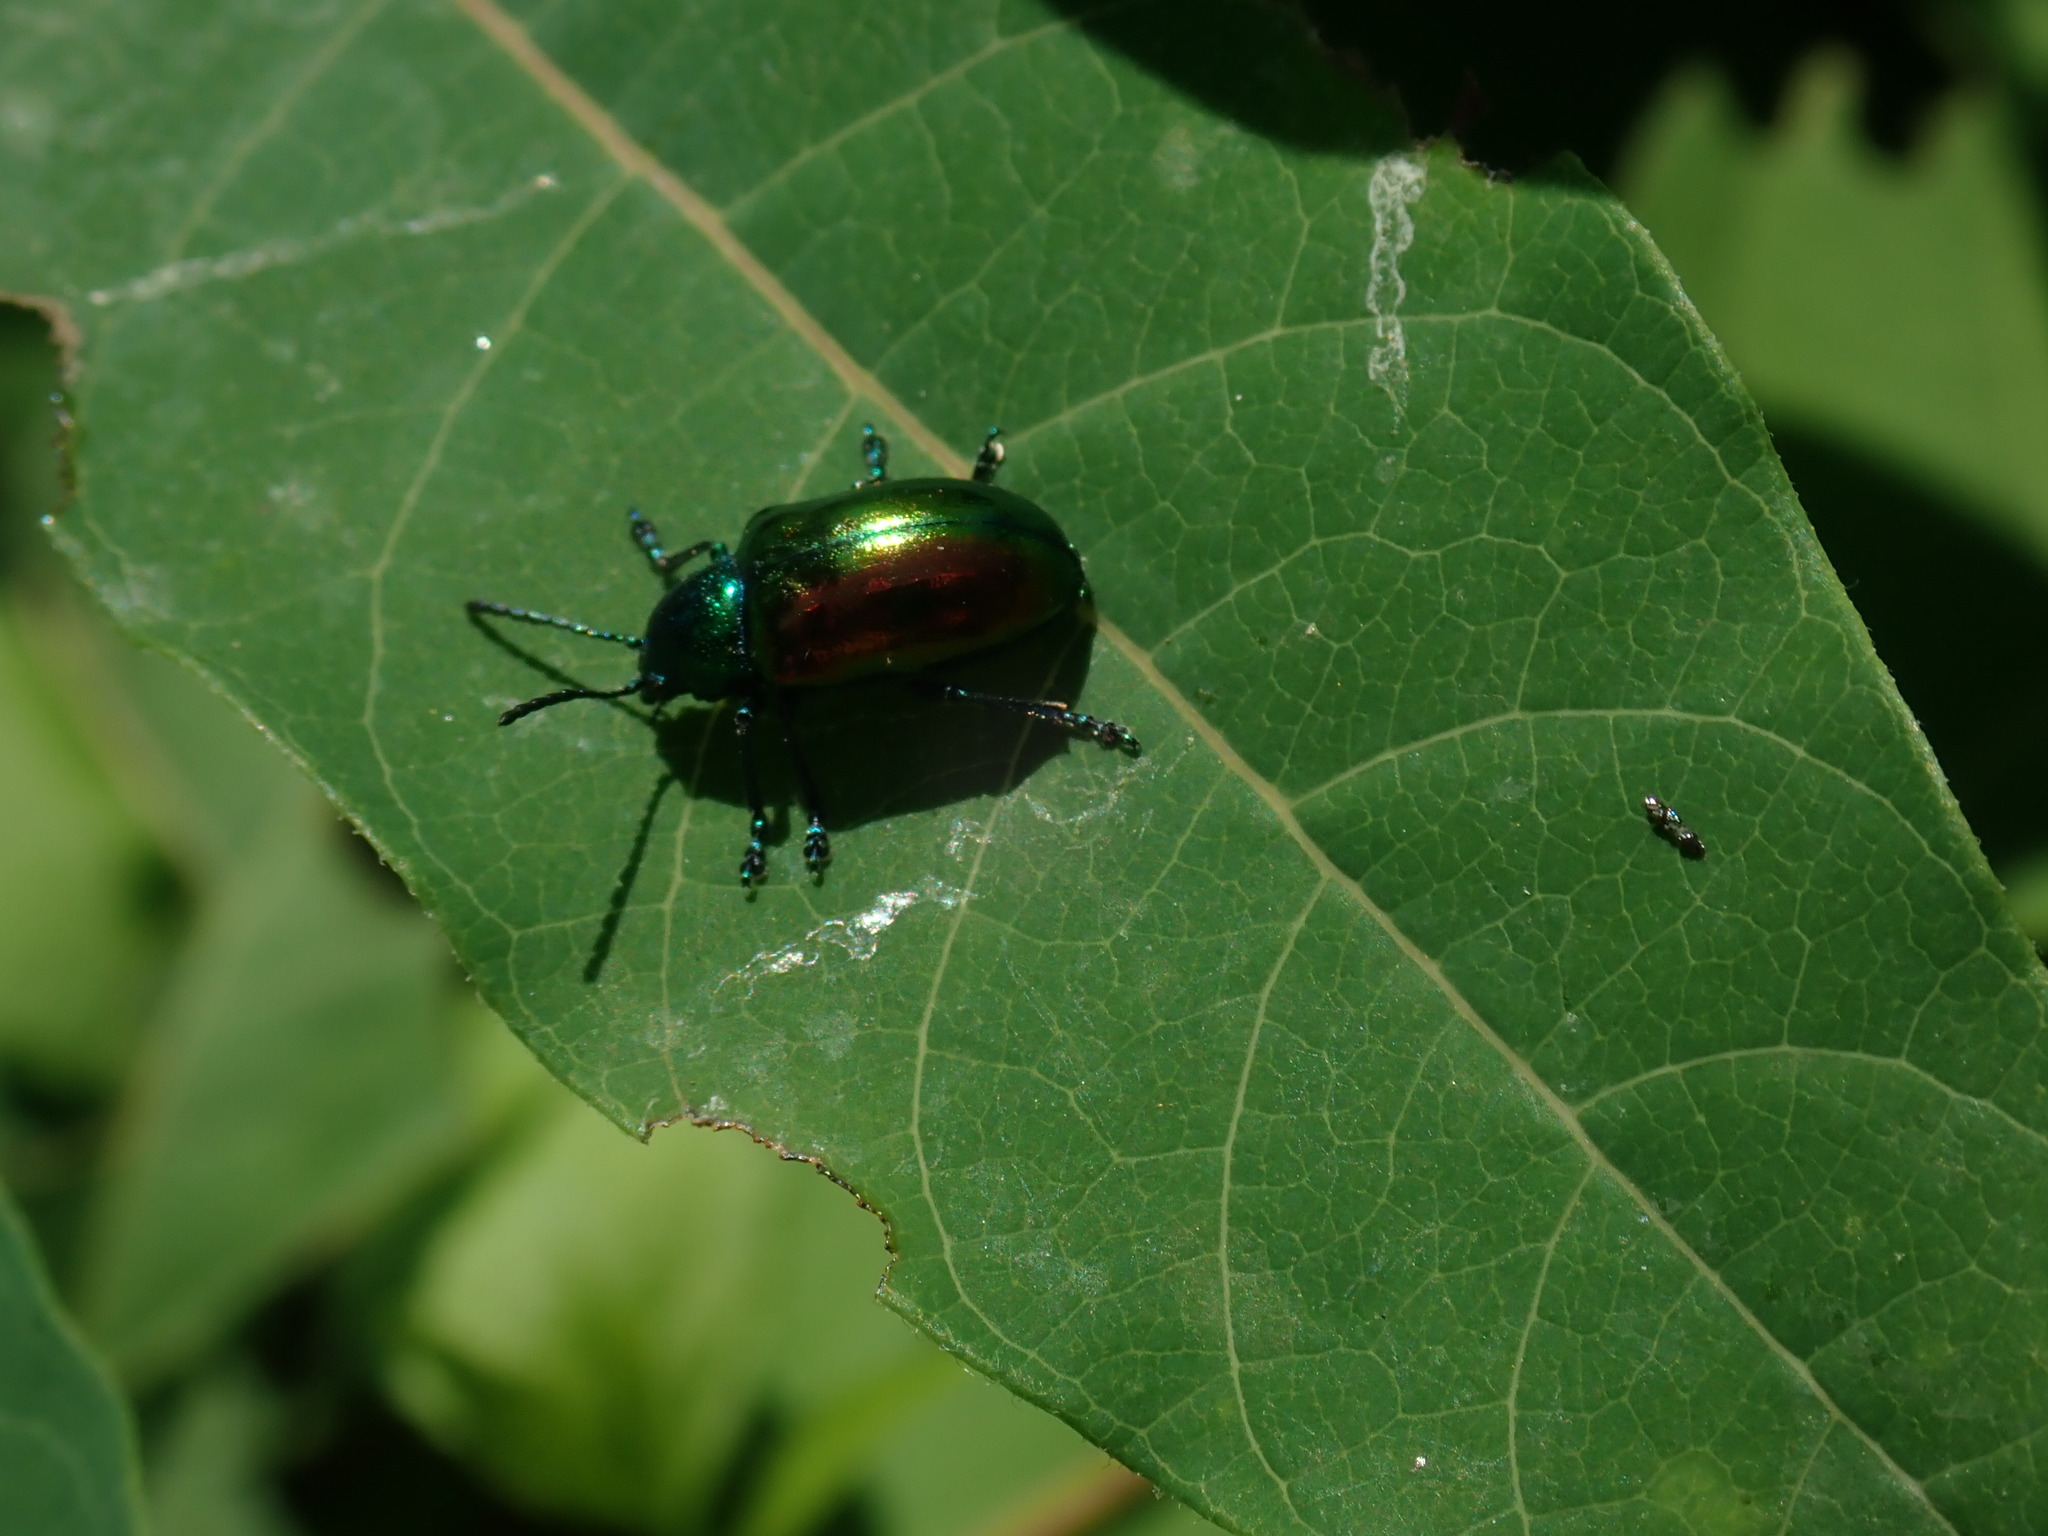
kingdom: Animalia
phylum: Arthropoda
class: Insecta
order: Coleoptera
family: Chrysomelidae
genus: Chrysochus
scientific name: Chrysochus auratus
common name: Dogbane leaf beetle
